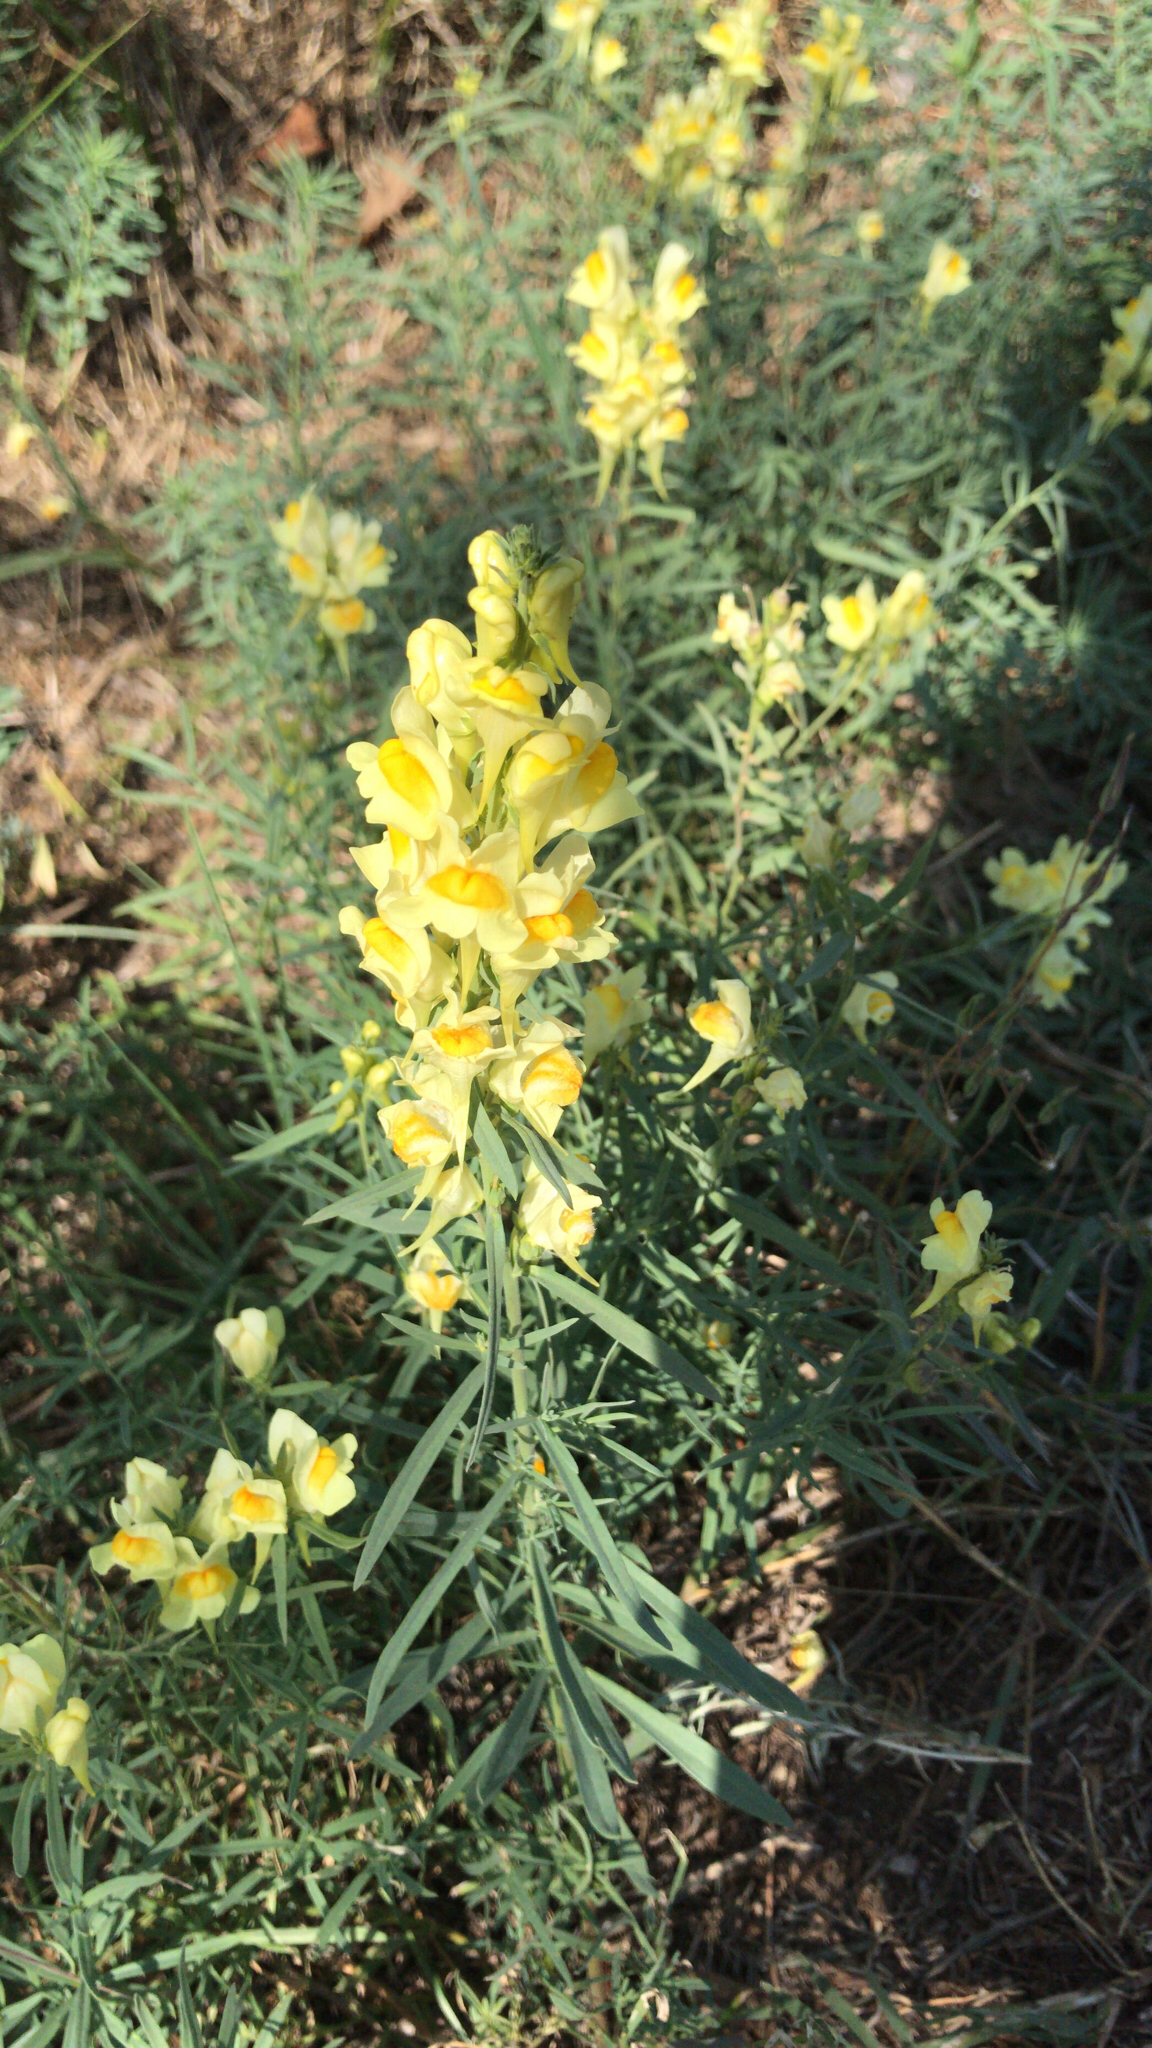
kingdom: Plantae
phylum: Tracheophyta
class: Magnoliopsida
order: Lamiales
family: Plantaginaceae
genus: Linaria
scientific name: Linaria vulgaris
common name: Butter and eggs
